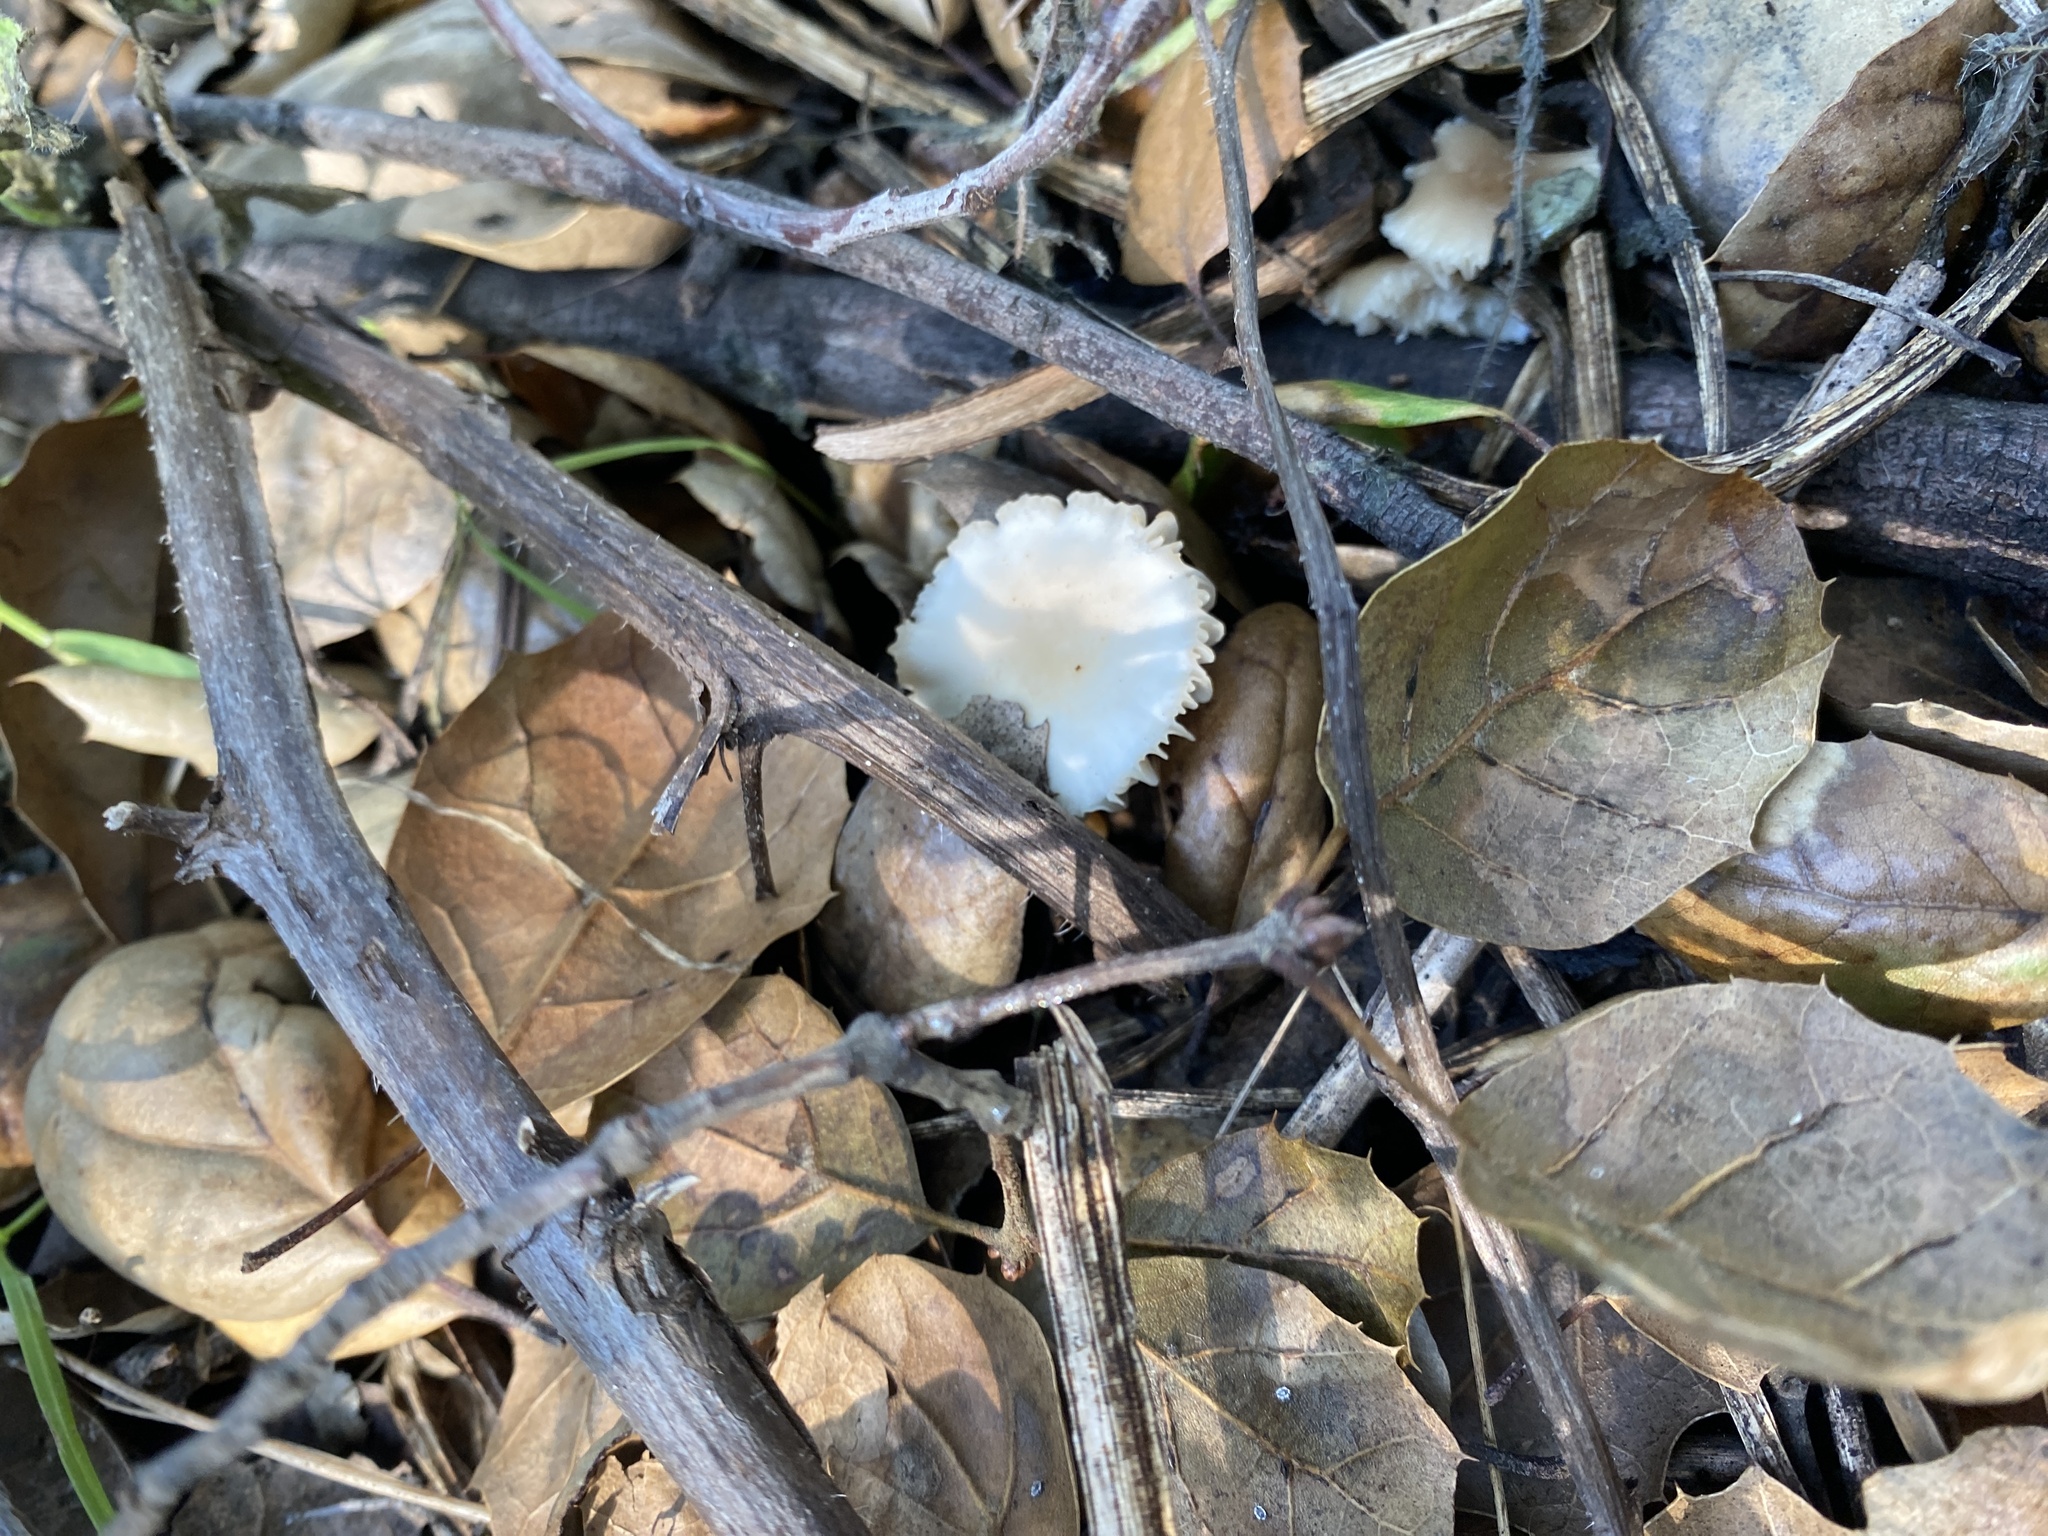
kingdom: Fungi
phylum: Basidiomycota
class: Agaricomycetes
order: Agaricales
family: Omphalotaceae
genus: Collybiopsis
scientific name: Collybiopsis californica
